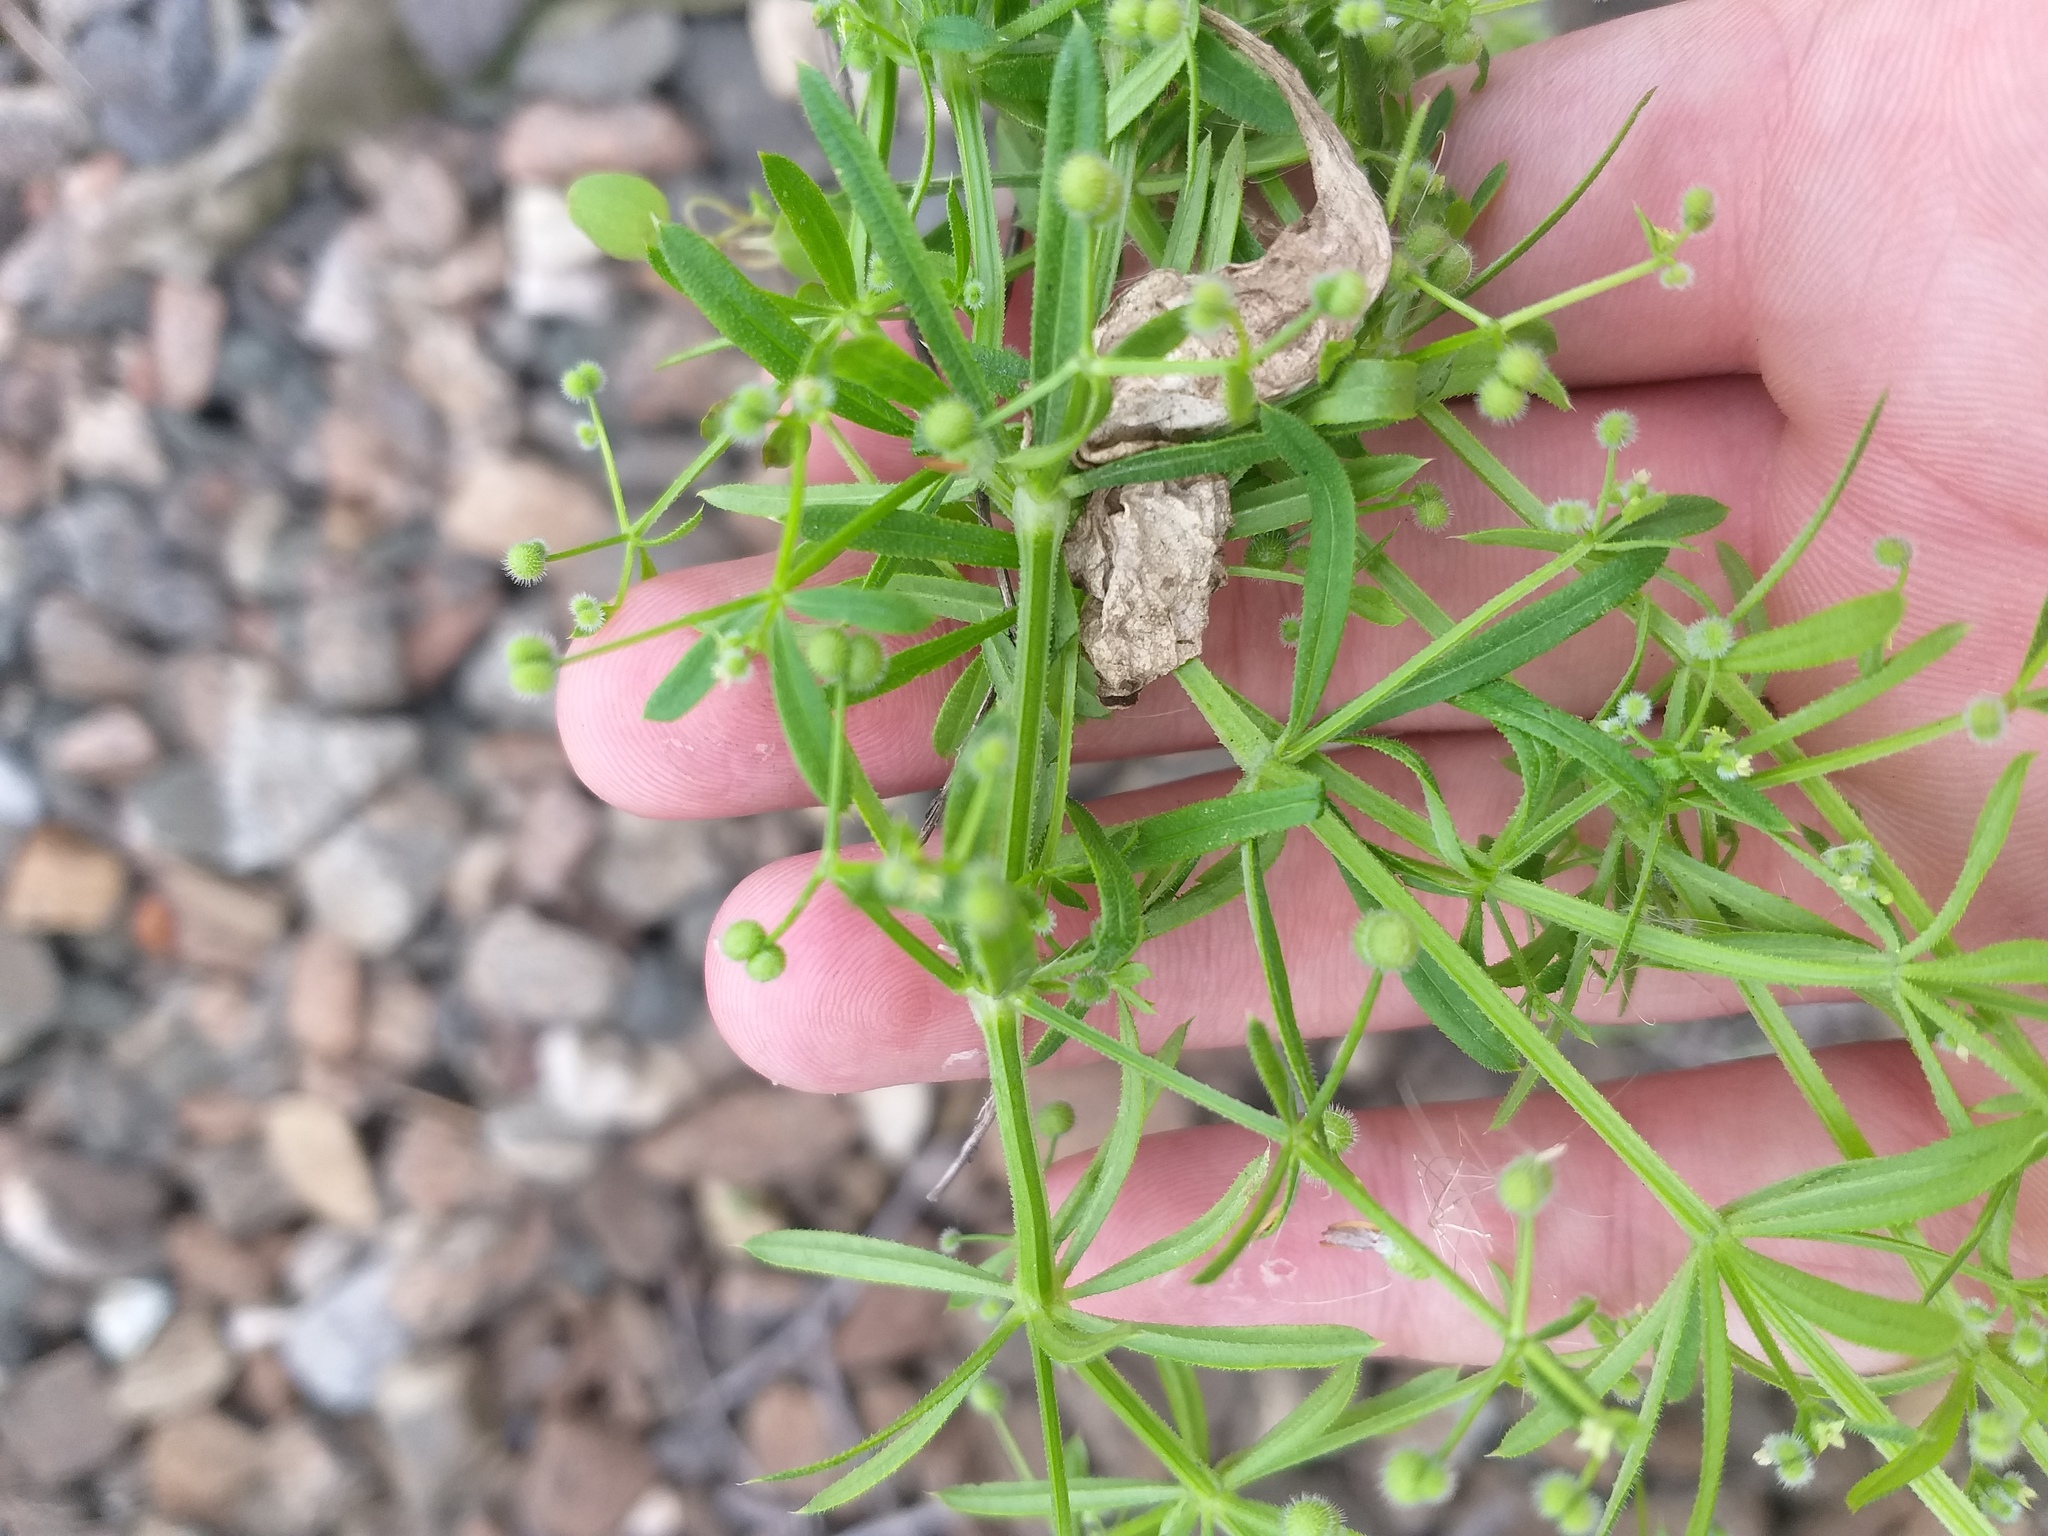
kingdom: Plantae
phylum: Tracheophyta
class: Magnoliopsida
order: Gentianales
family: Rubiaceae
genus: Galium
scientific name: Galium
